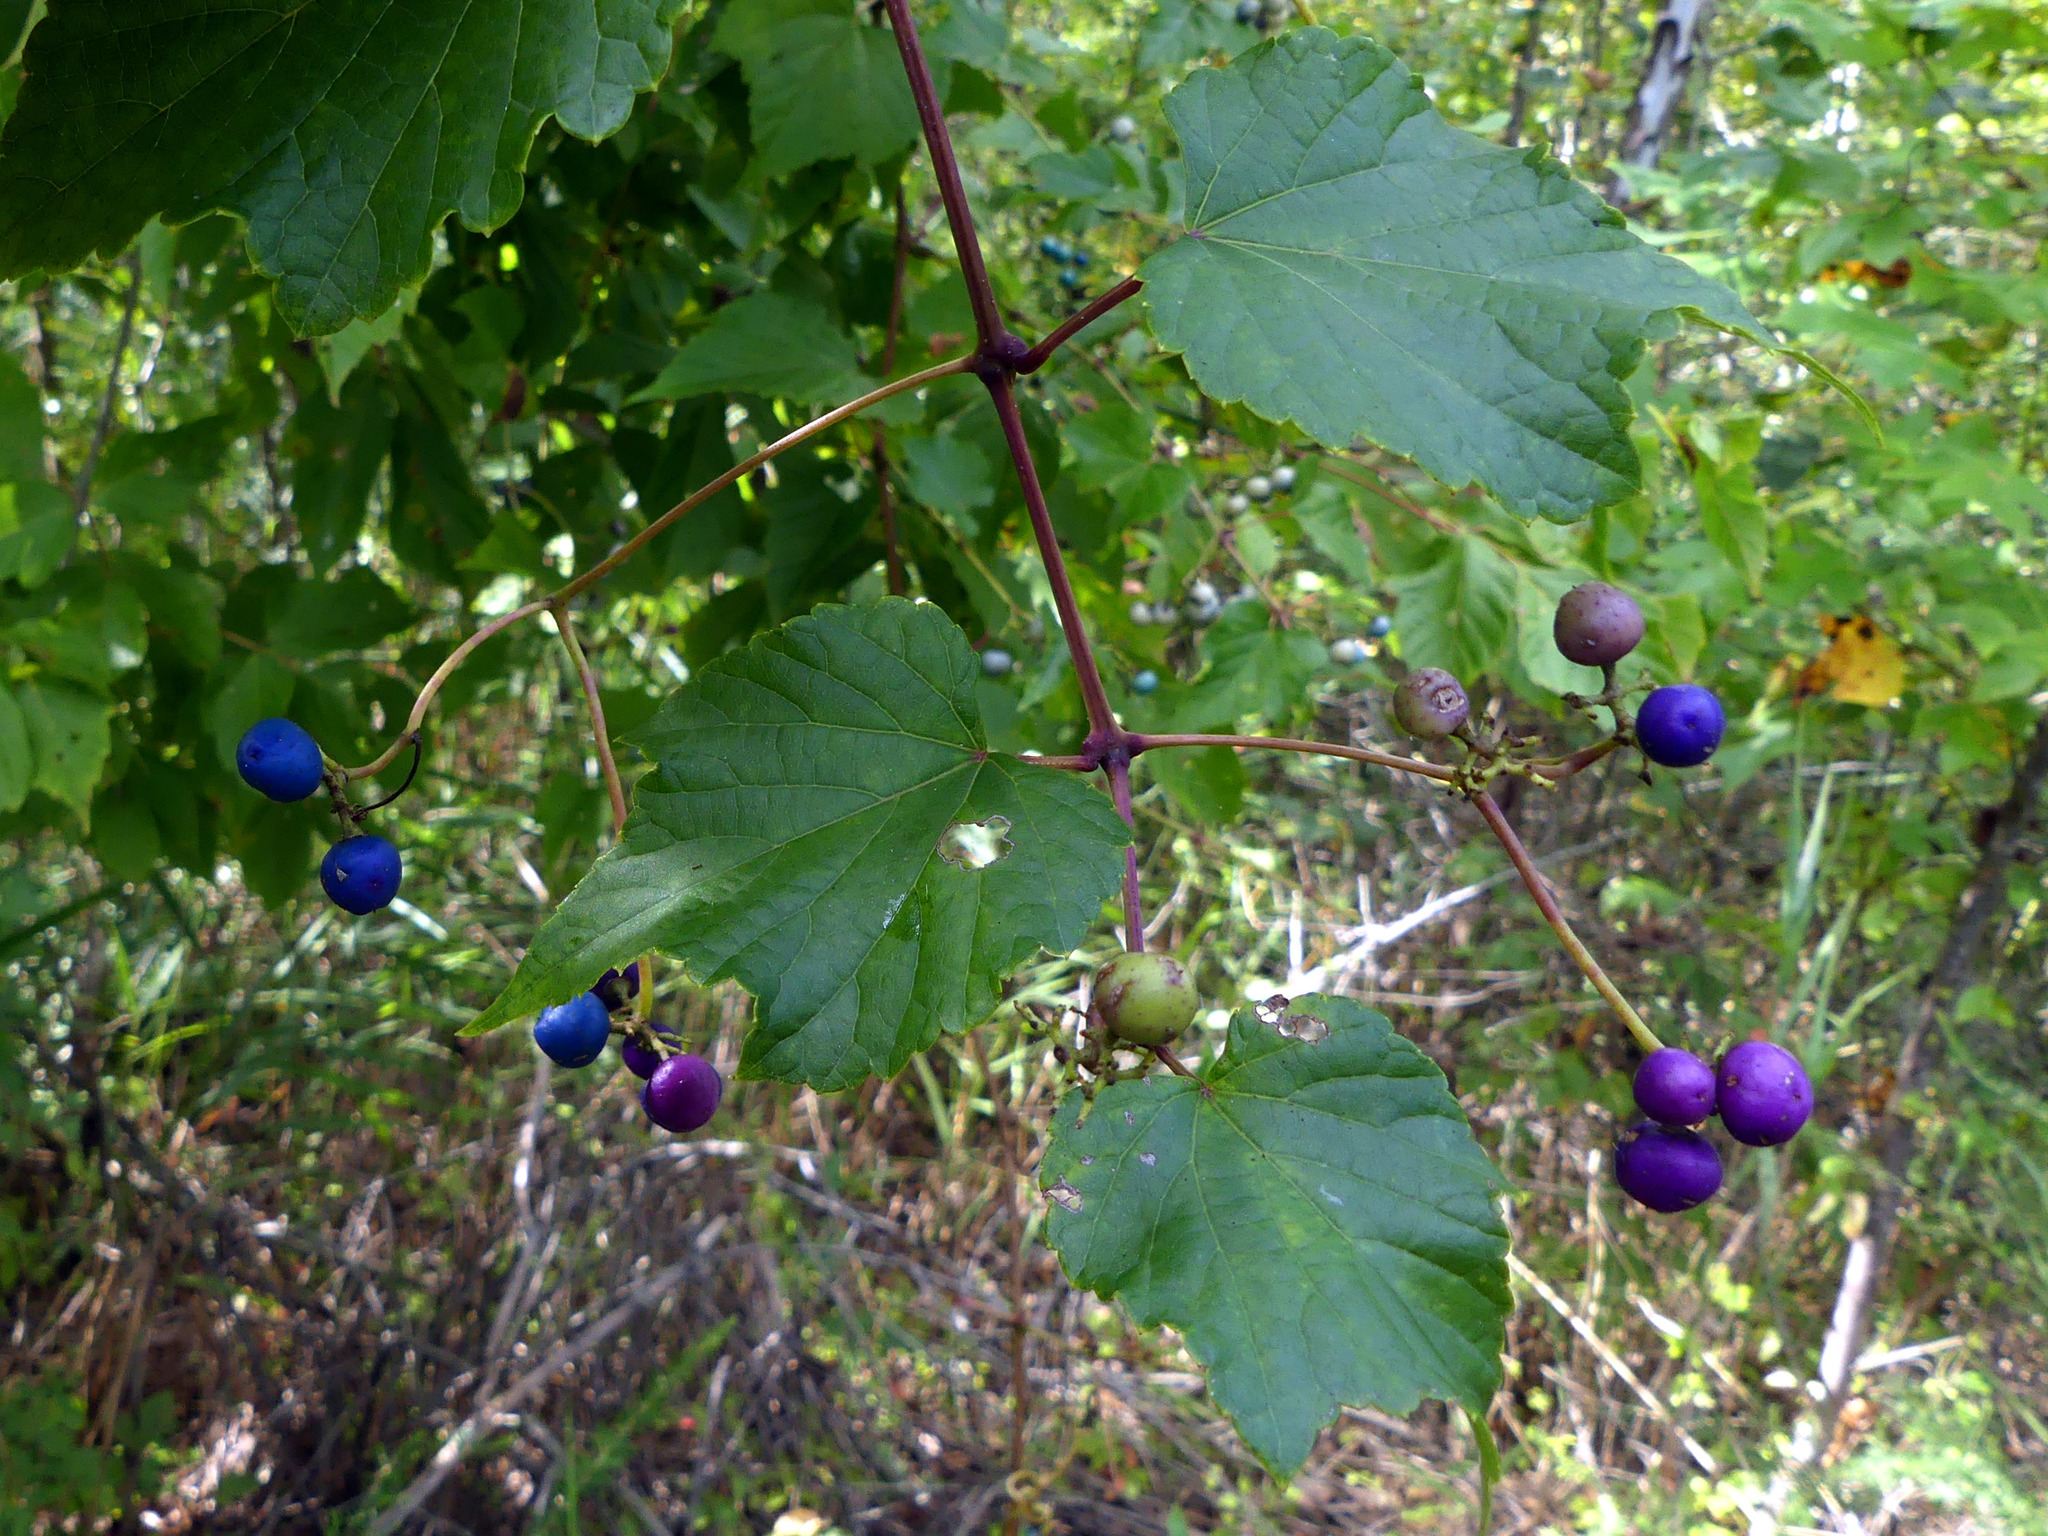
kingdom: Plantae
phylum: Tracheophyta
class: Magnoliopsida
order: Vitales
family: Vitaceae
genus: Ampelopsis
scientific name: Ampelopsis glandulosa
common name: Amur peppervine
